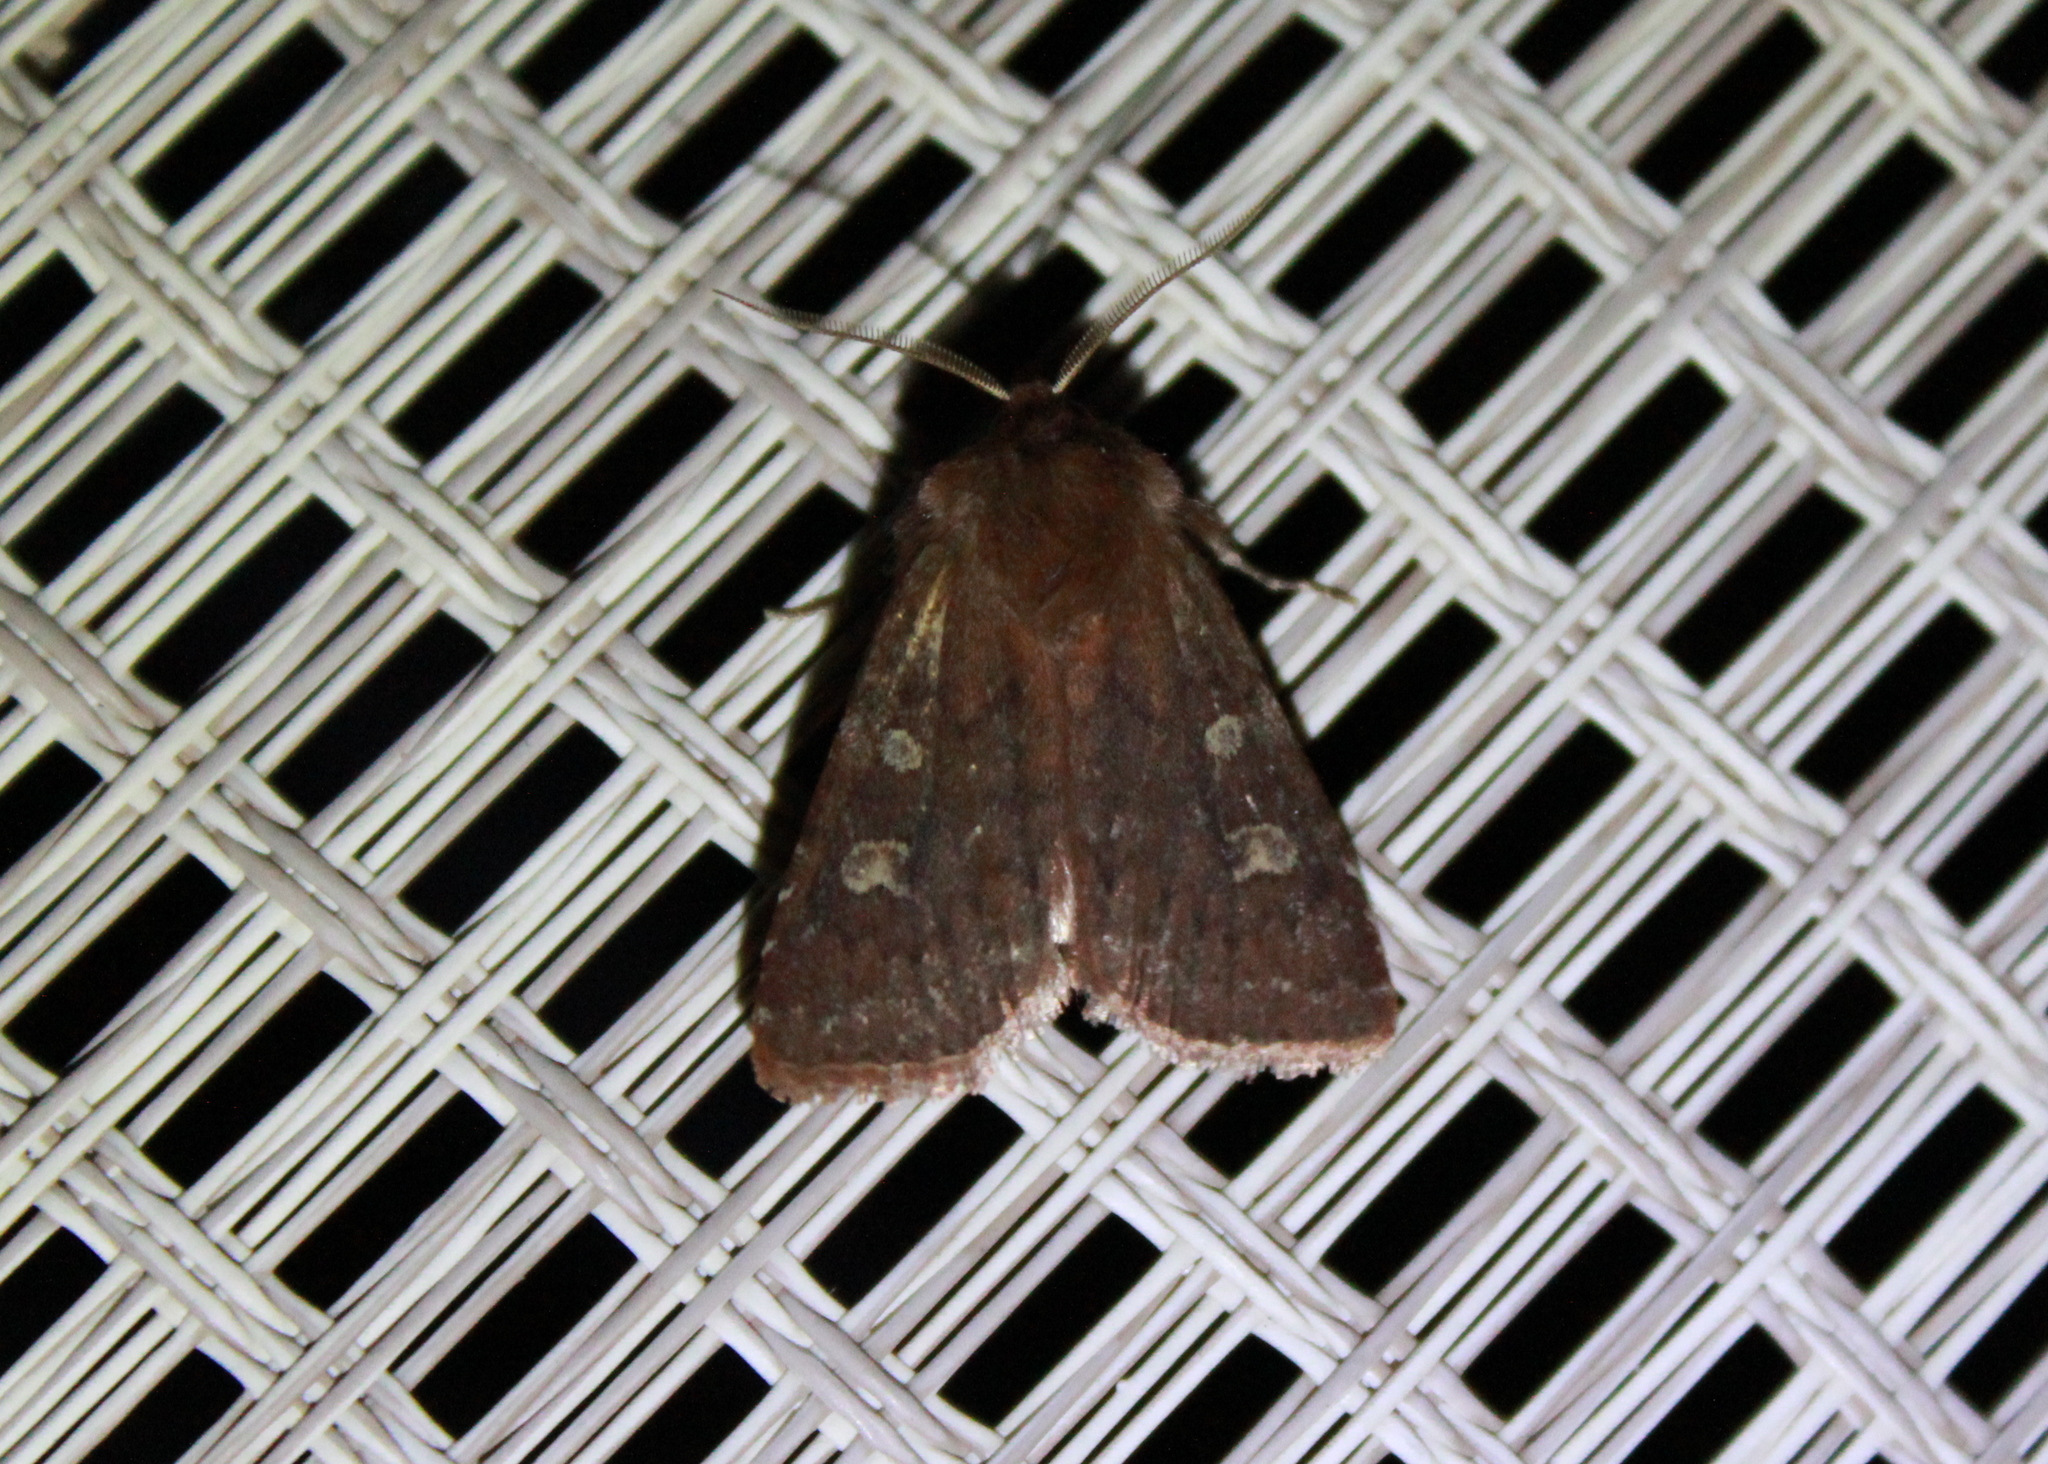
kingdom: Animalia
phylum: Arthropoda
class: Insecta
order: Lepidoptera
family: Noctuidae
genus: Cerastis
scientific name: Cerastis tenebrifera
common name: Reddish speckled dart
